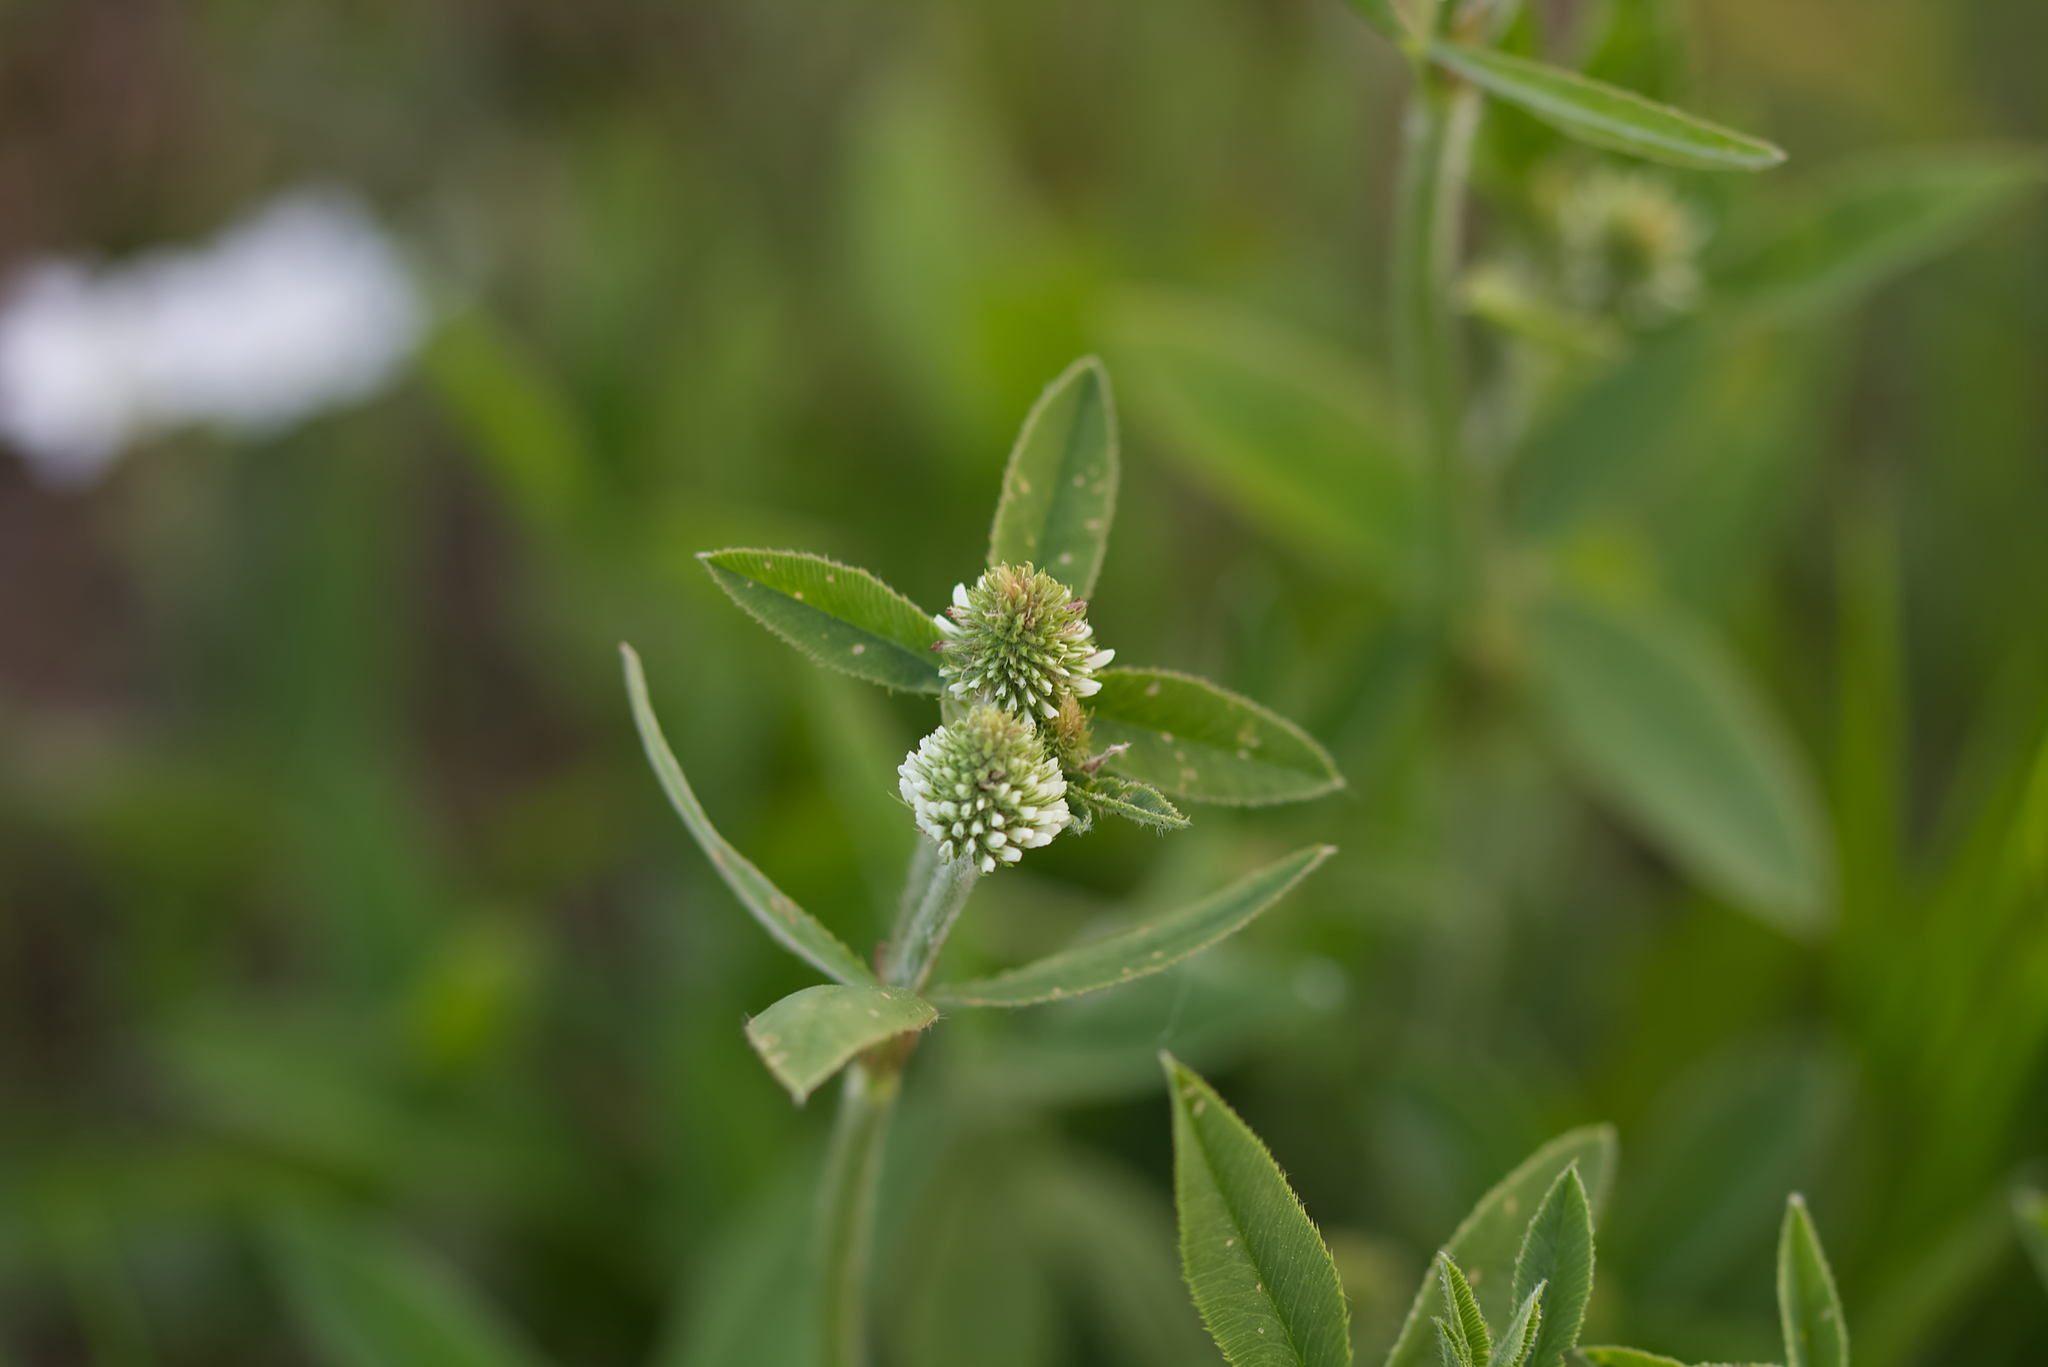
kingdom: Plantae
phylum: Tracheophyta
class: Magnoliopsida
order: Fabales
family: Fabaceae
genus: Trifolium
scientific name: Trifolium montanum
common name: Mountain clover
